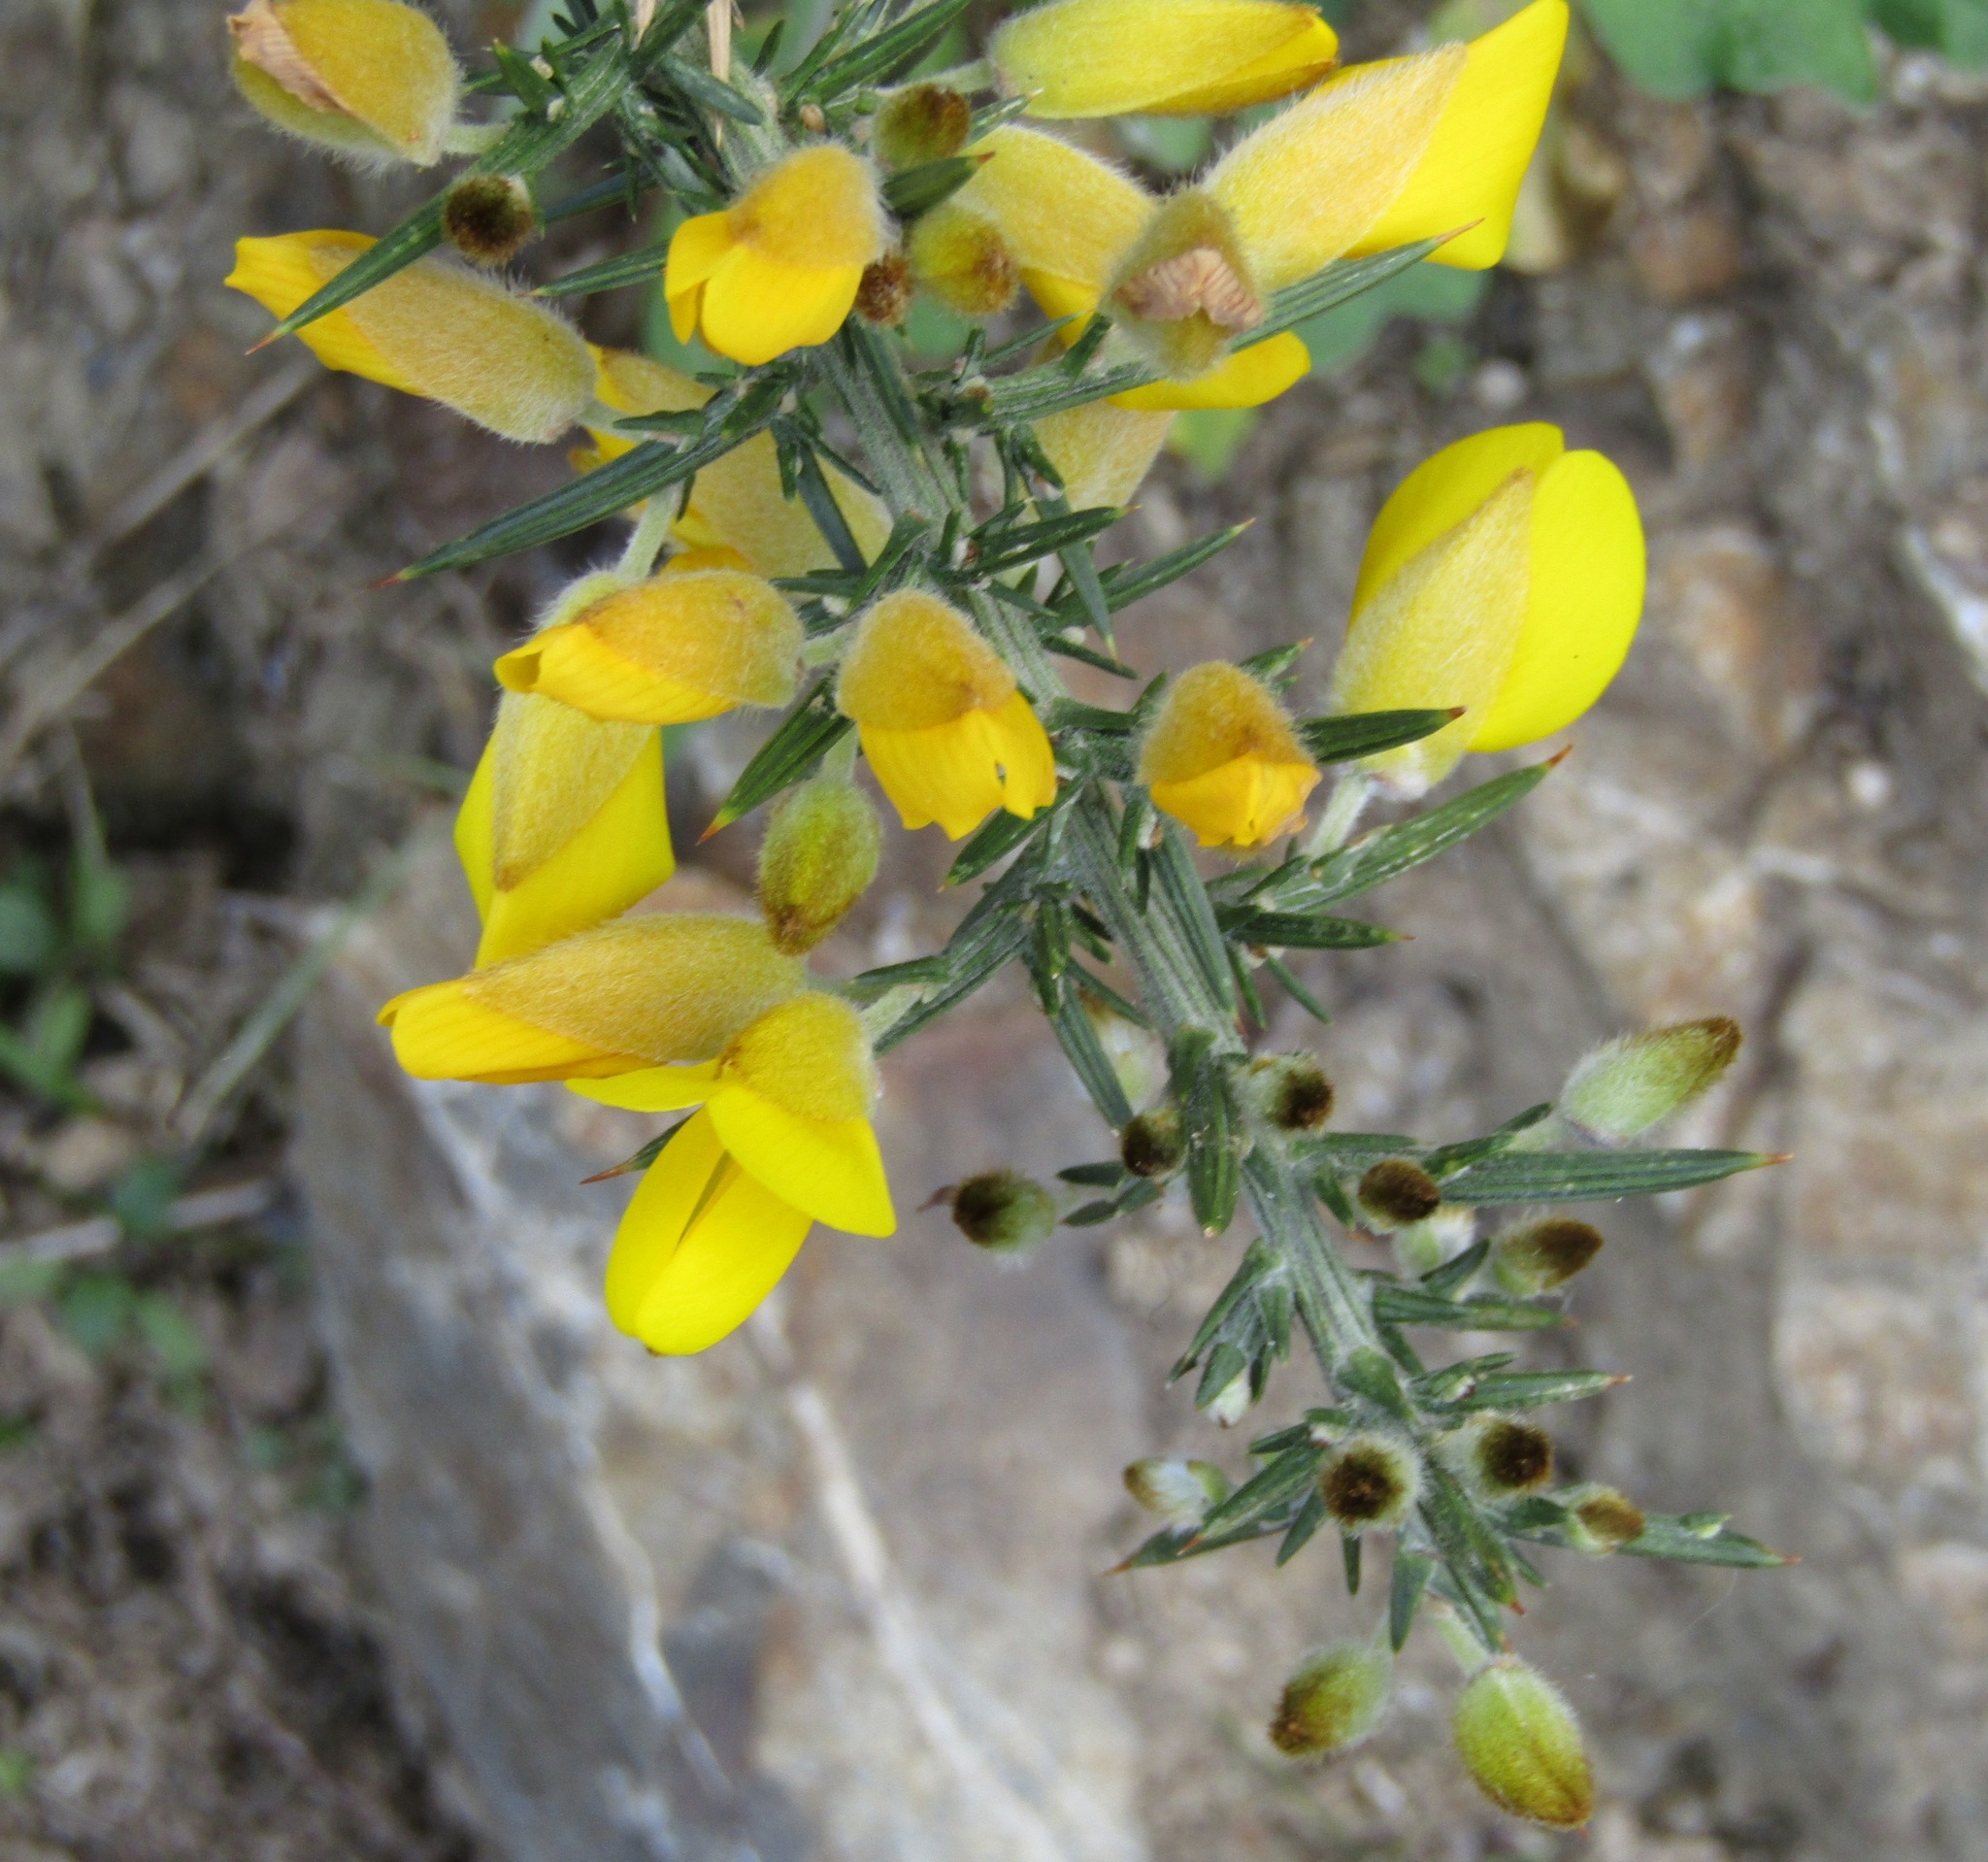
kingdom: Plantae
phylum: Tracheophyta
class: Magnoliopsida
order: Fabales
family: Fabaceae
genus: Ulex
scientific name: Ulex europaeus
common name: Common gorse
